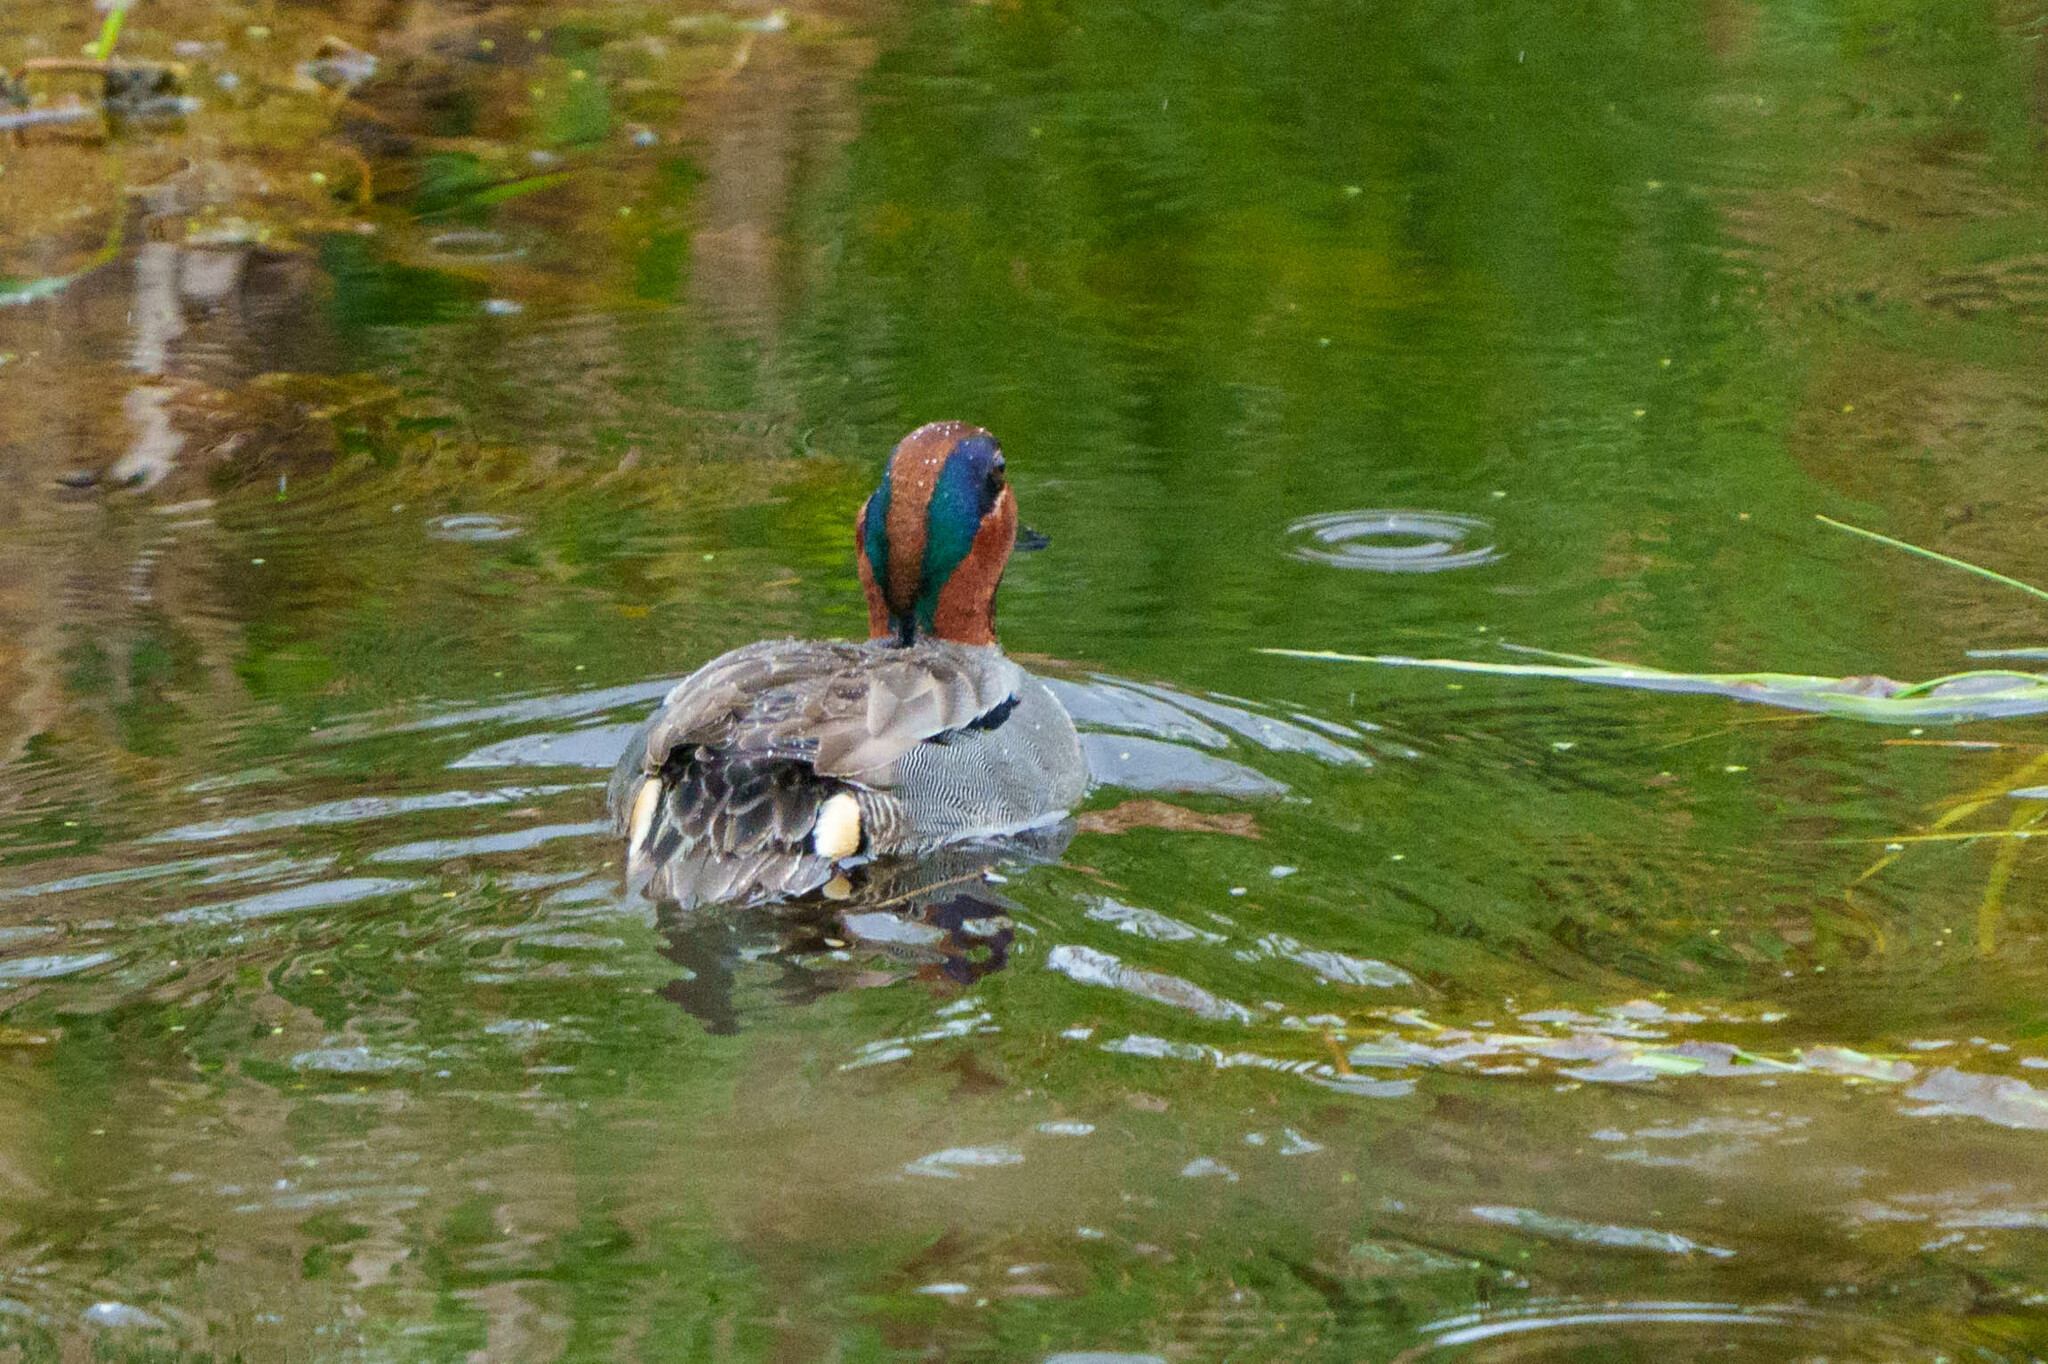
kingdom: Animalia
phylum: Chordata
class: Aves
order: Anseriformes
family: Anatidae
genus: Anas
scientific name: Anas crecca
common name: Eurasian teal
